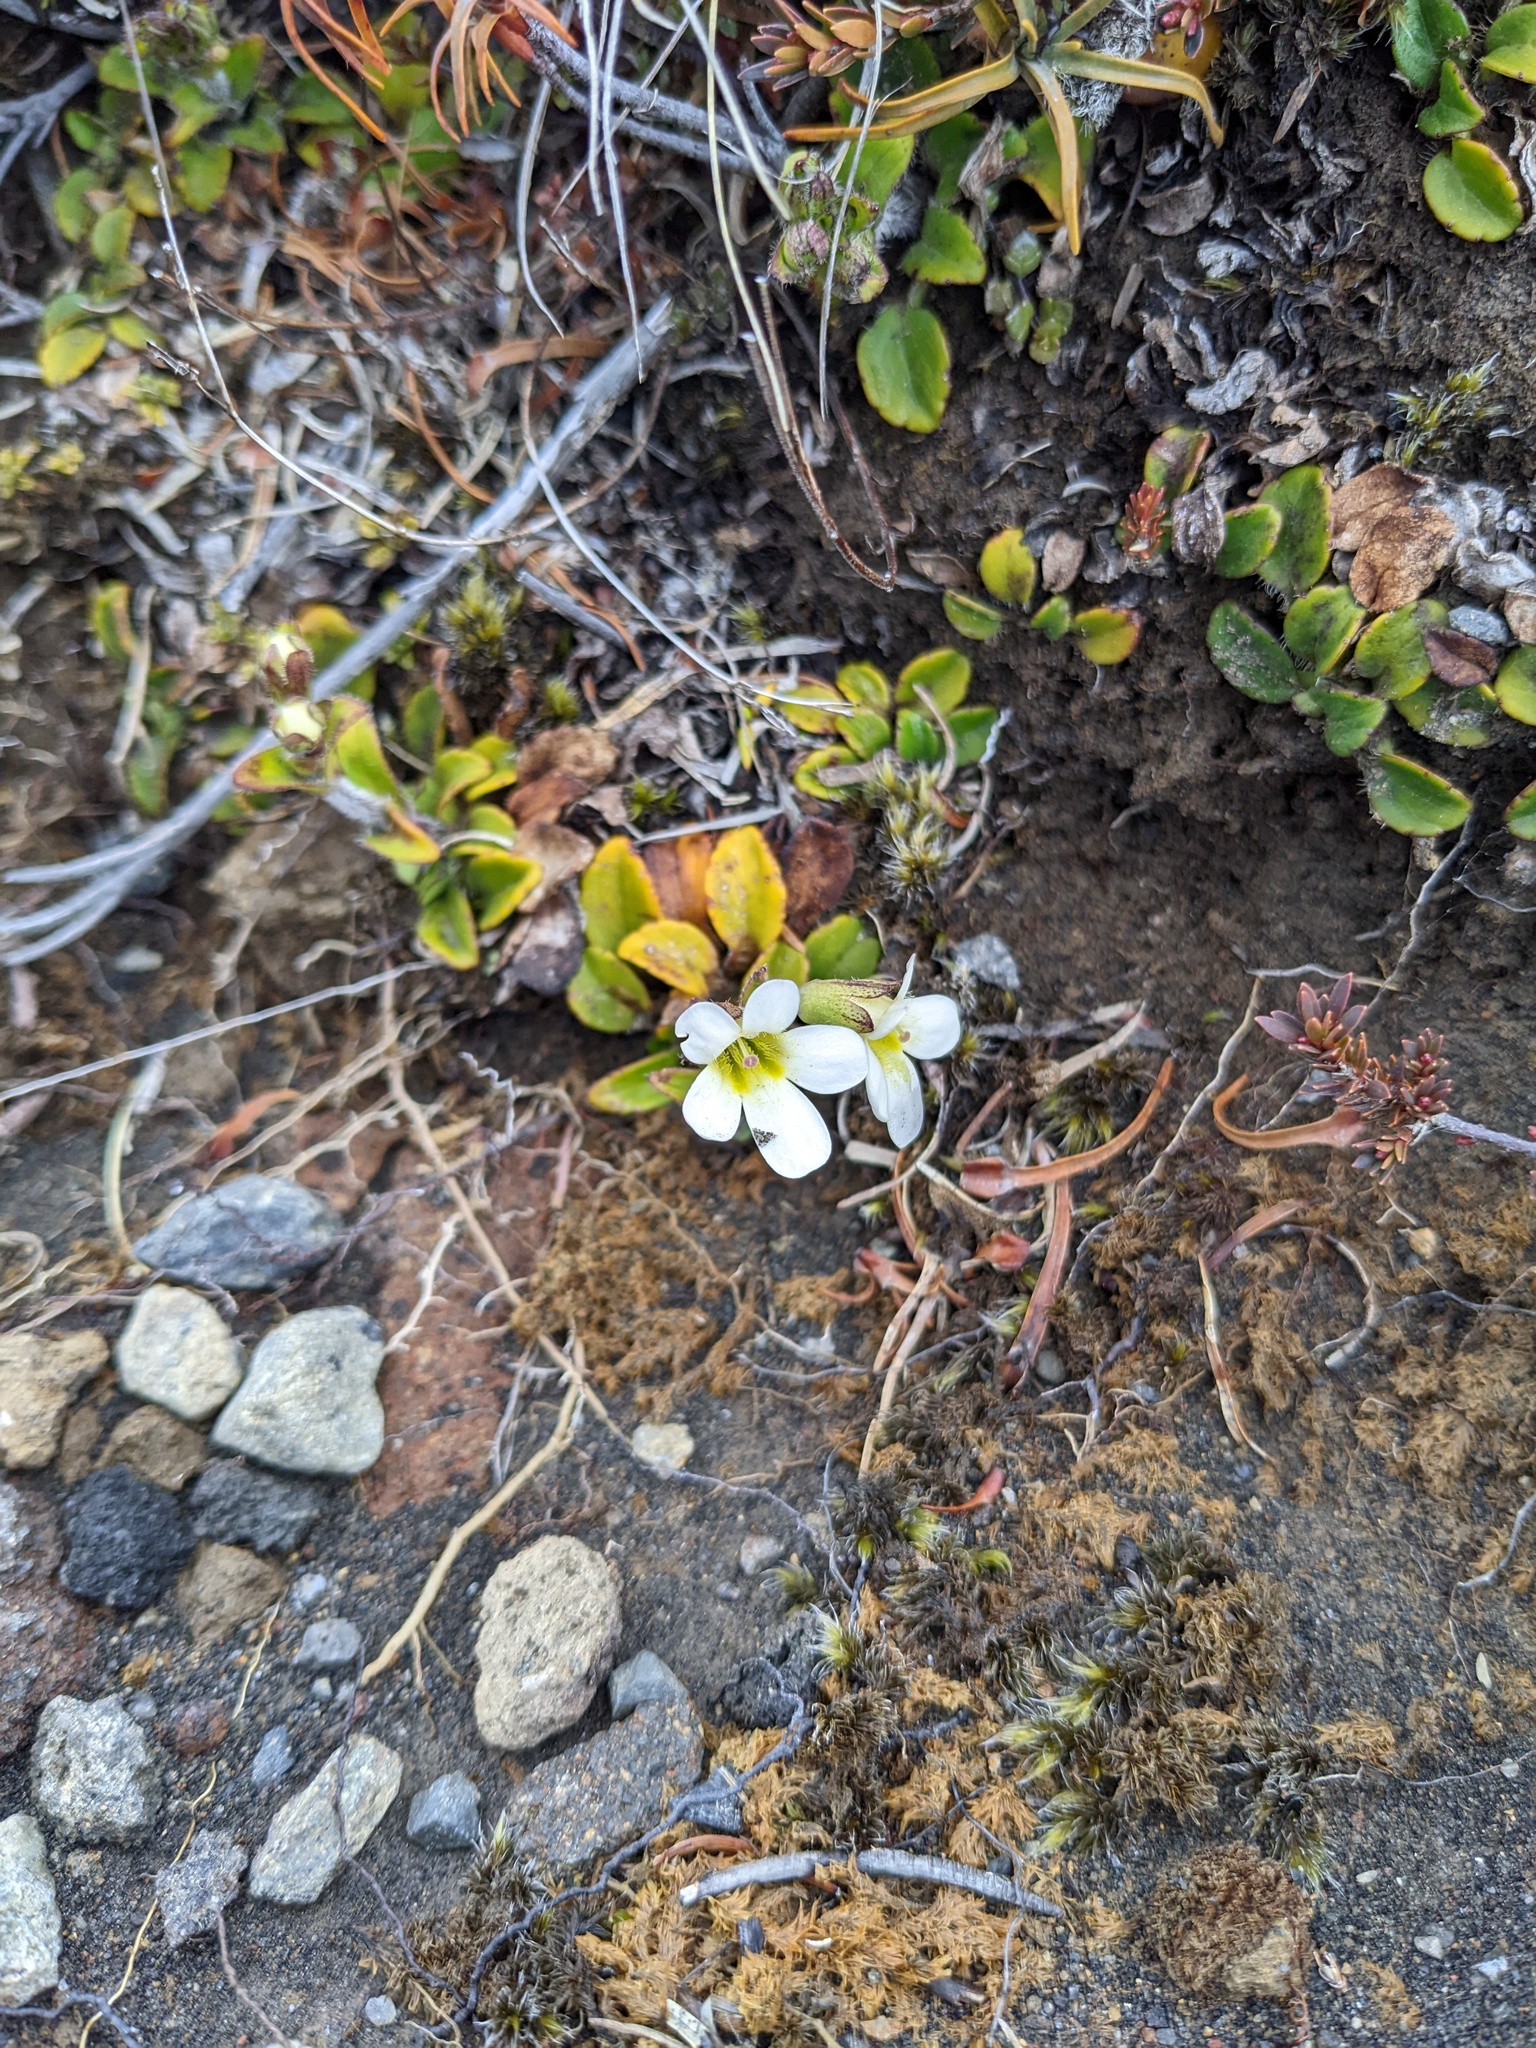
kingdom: Plantae
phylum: Tracheophyta
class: Magnoliopsida
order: Lamiales
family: Plantaginaceae
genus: Ourisia
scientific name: Ourisia vulcanica
